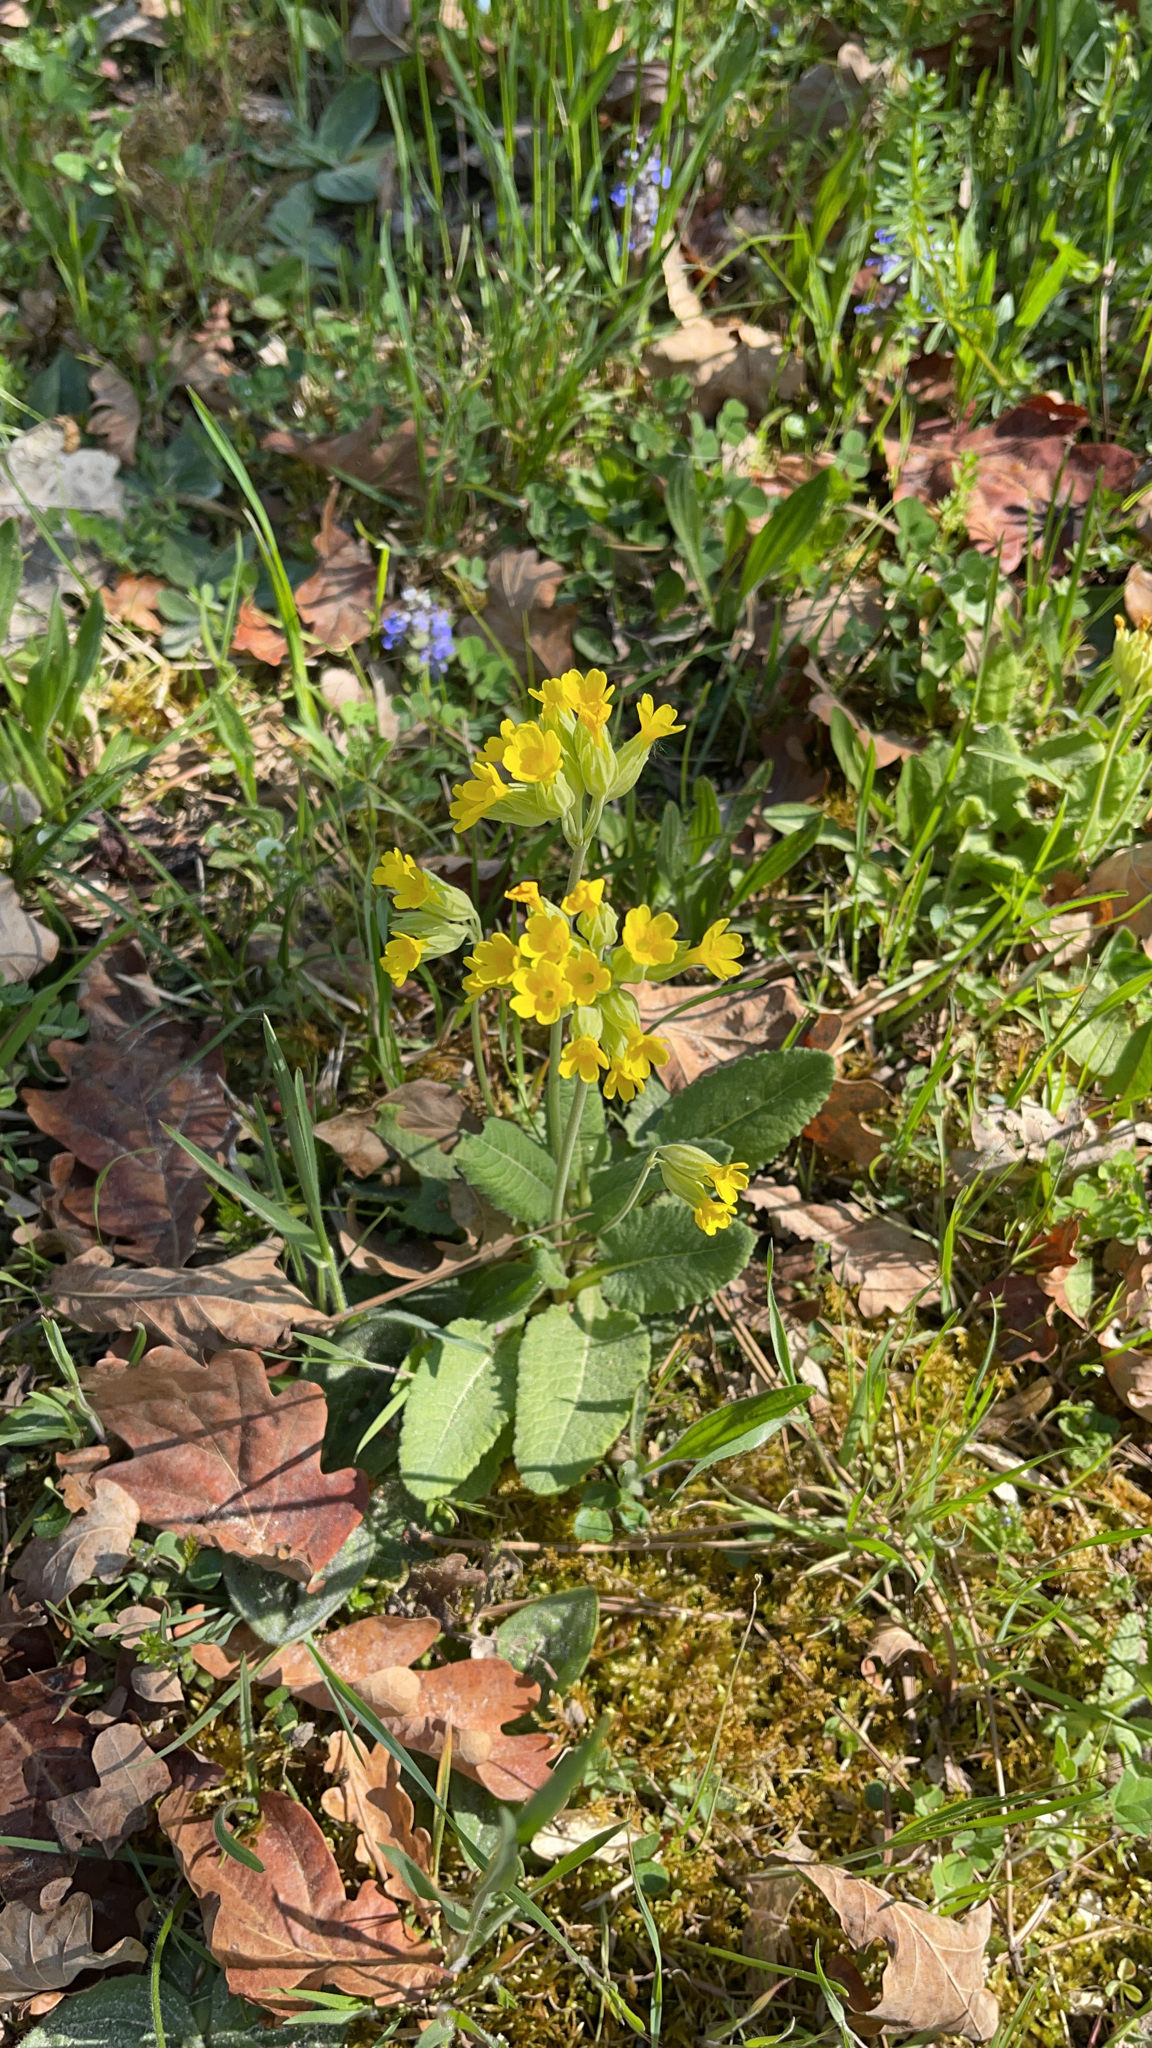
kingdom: Plantae
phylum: Tracheophyta
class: Magnoliopsida
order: Ericales
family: Primulaceae
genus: Primula
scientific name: Primula veris
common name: Cowslip
